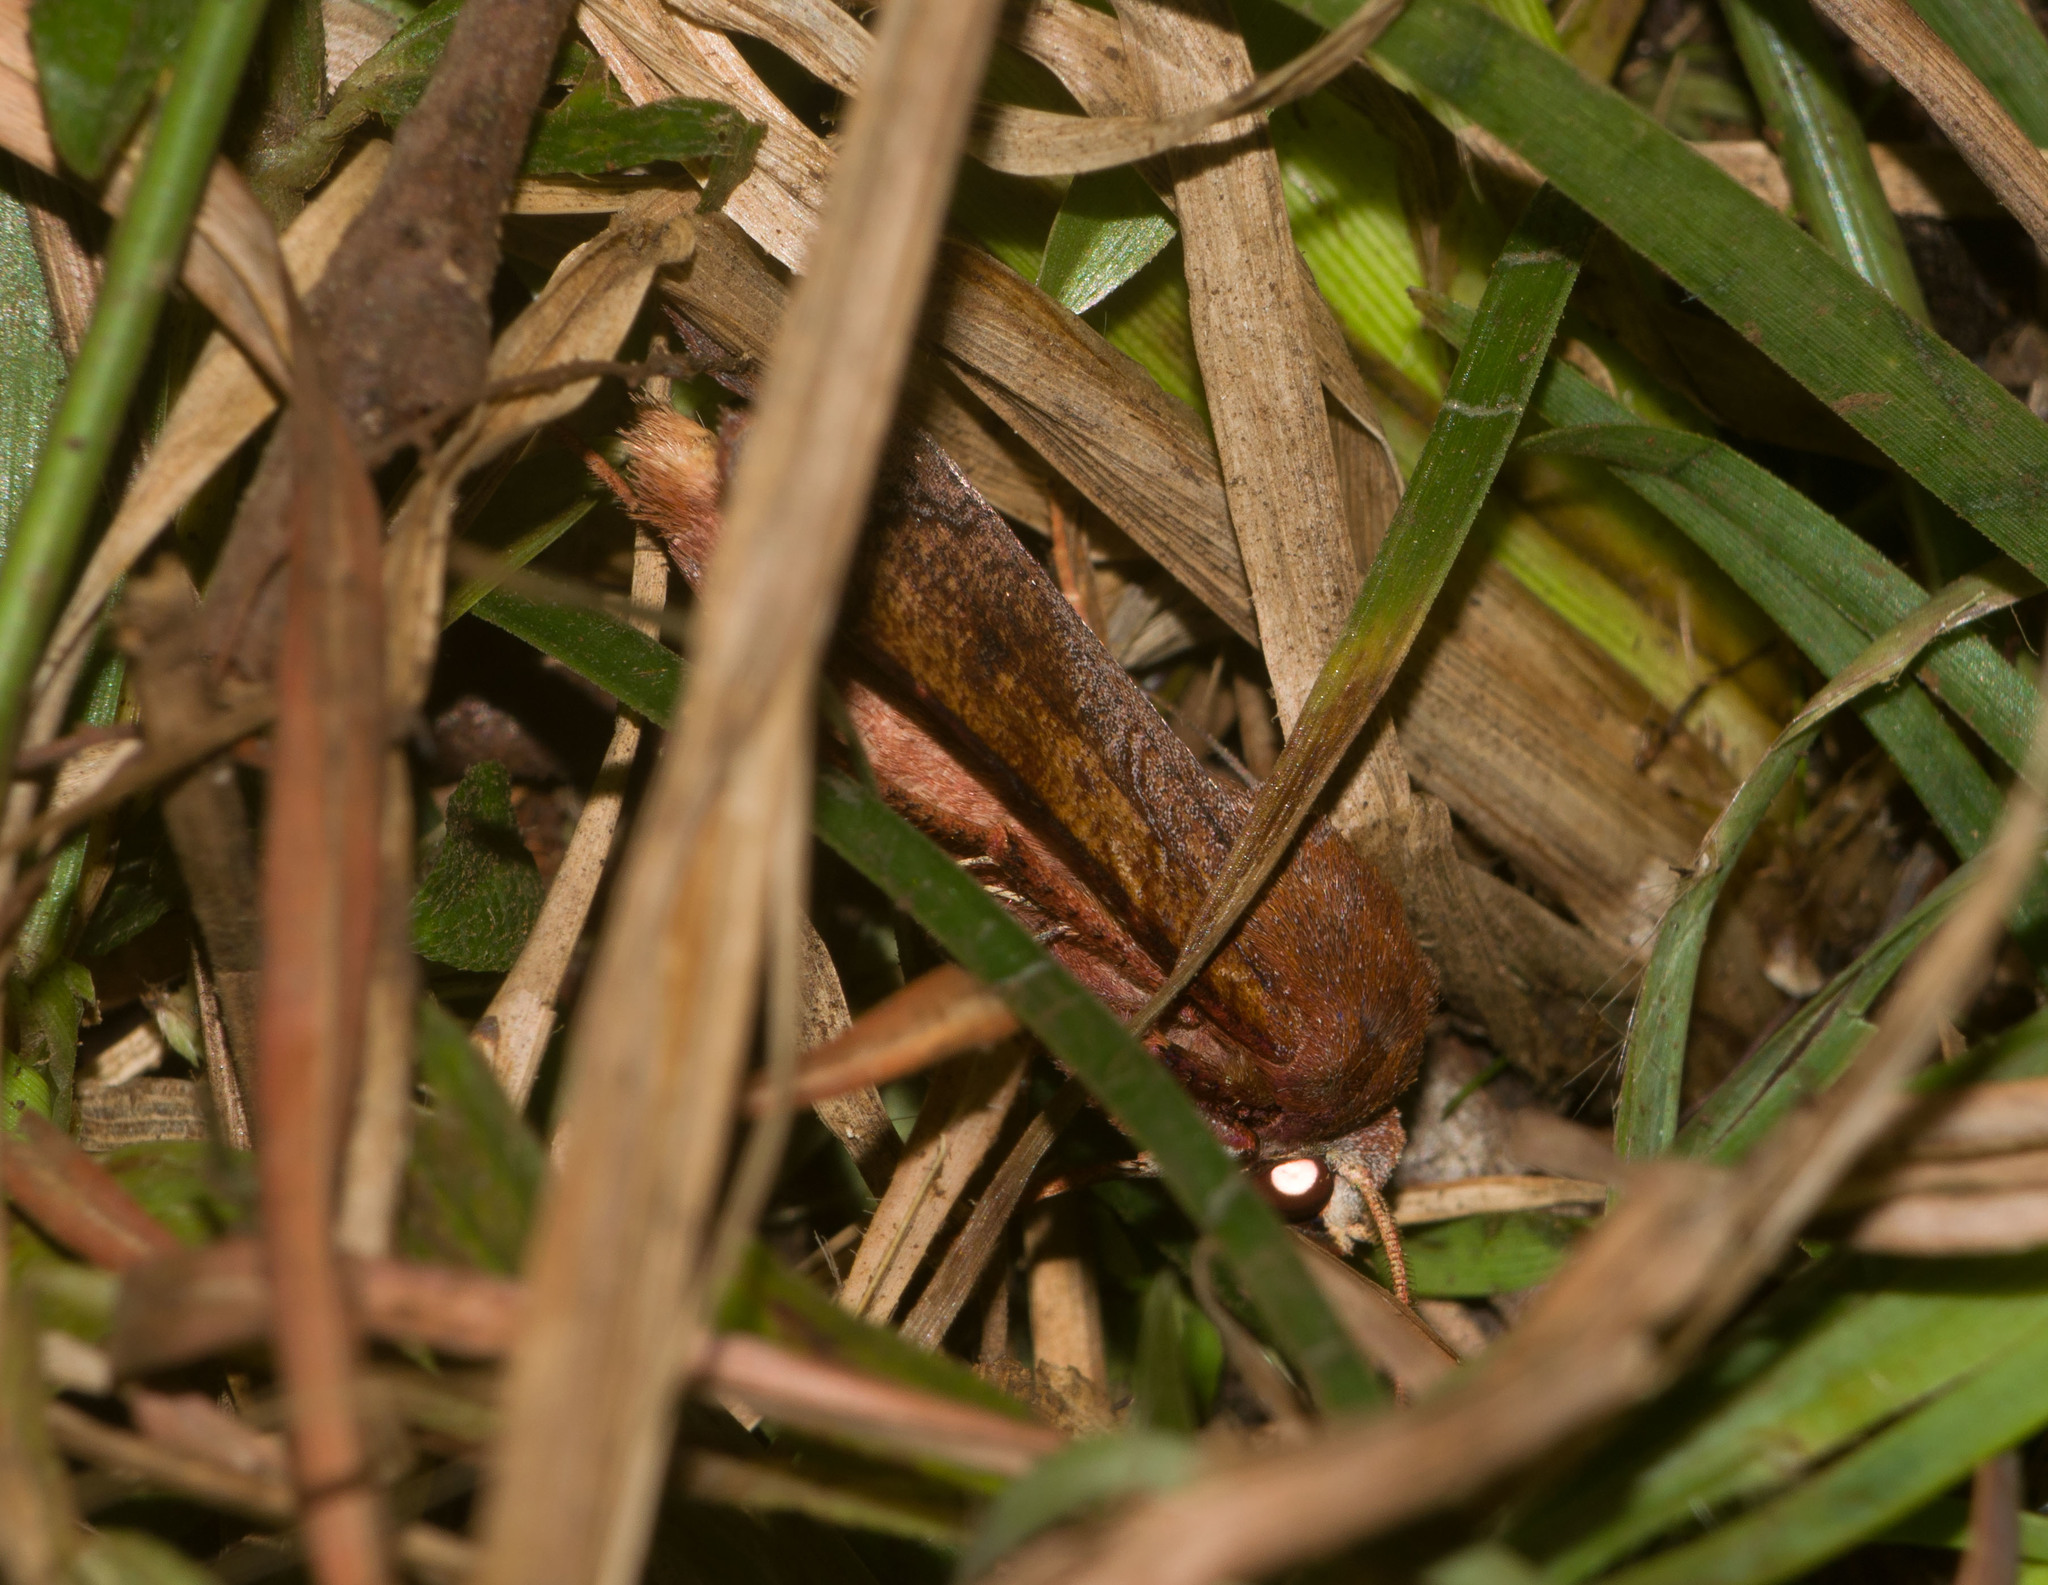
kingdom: Animalia
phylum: Arthropoda
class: Insecta
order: Lepidoptera
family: Noctuidae
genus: Agrotis
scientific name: Agrotis hephaestaea
